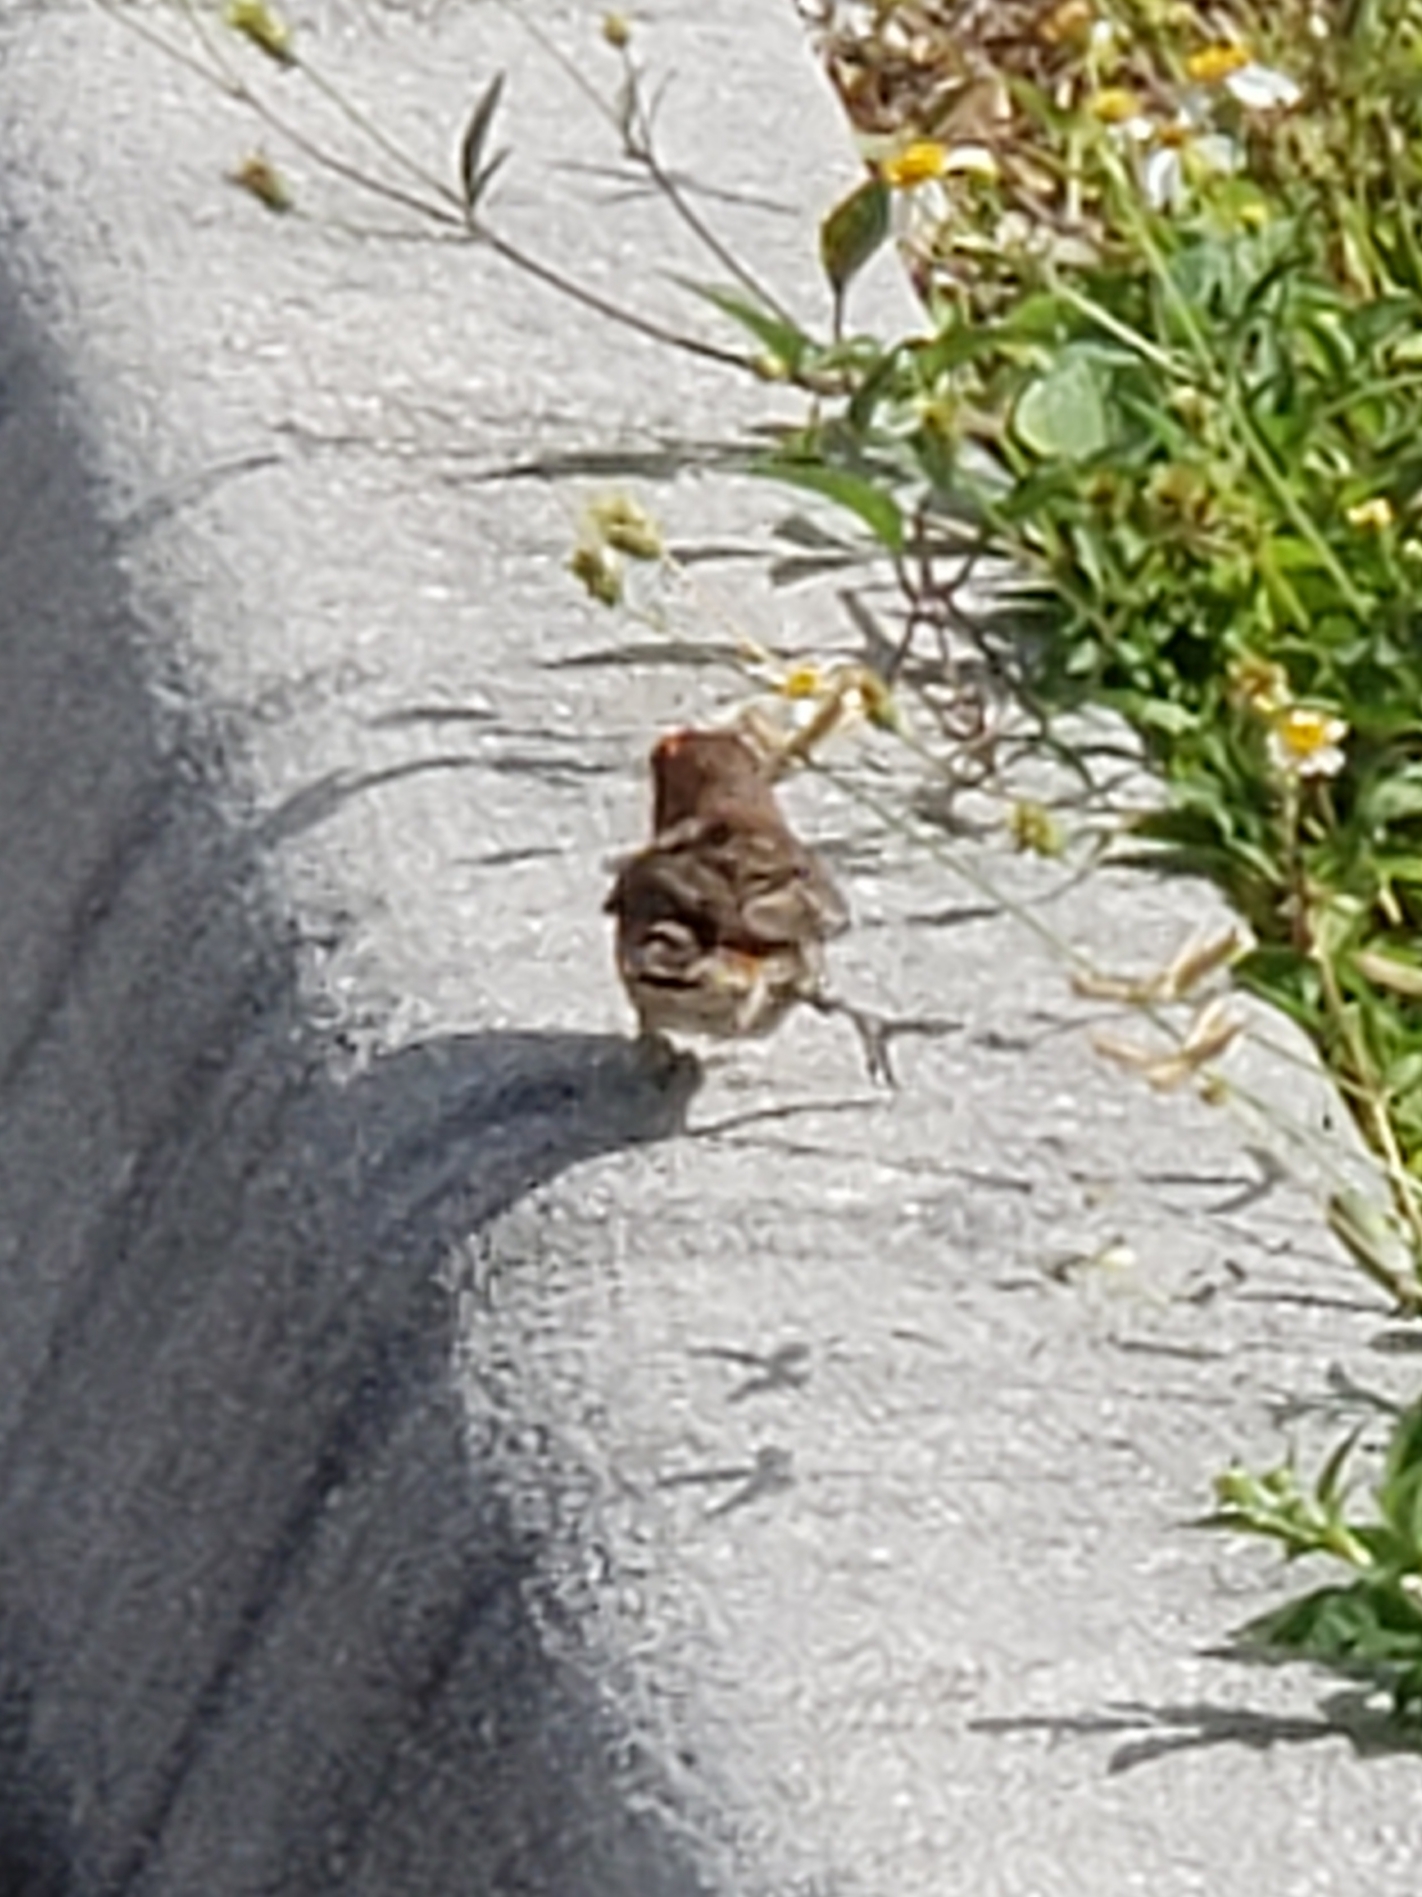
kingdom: Animalia
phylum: Chordata
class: Aves
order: Passeriformes
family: Fringillidae
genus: Haemorhous
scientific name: Haemorhous mexicanus
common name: House finch
